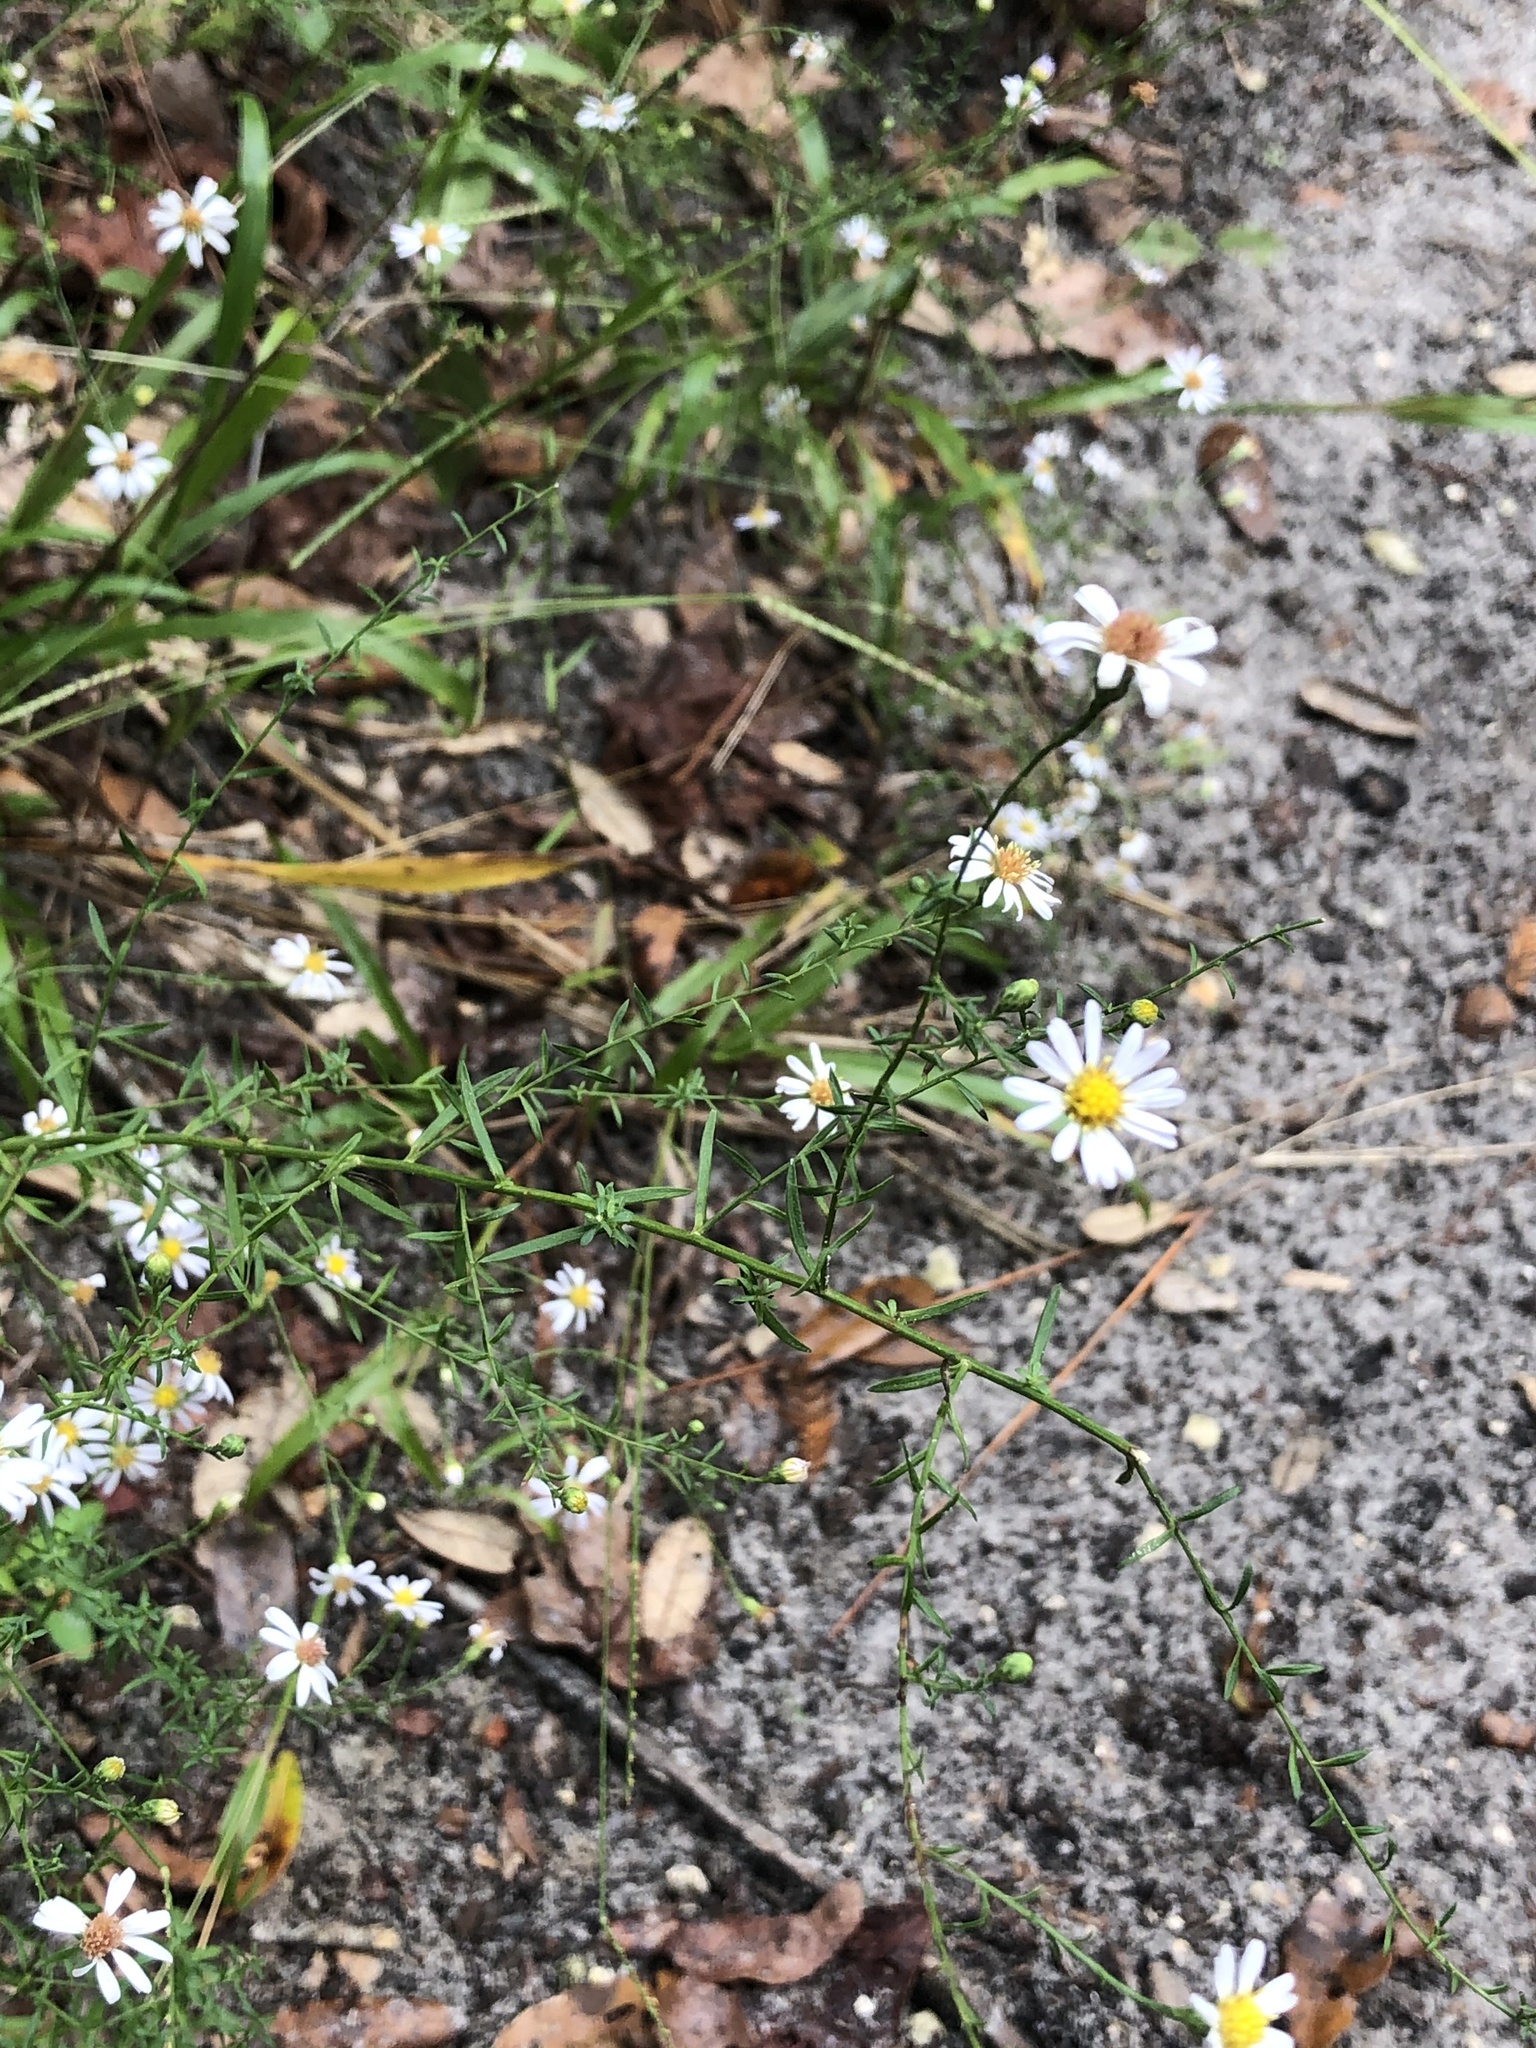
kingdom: Plantae
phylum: Tracheophyta
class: Magnoliopsida
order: Asterales
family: Asteraceae
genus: Symphyotrichum
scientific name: Symphyotrichum dumosum
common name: Bushy aster
